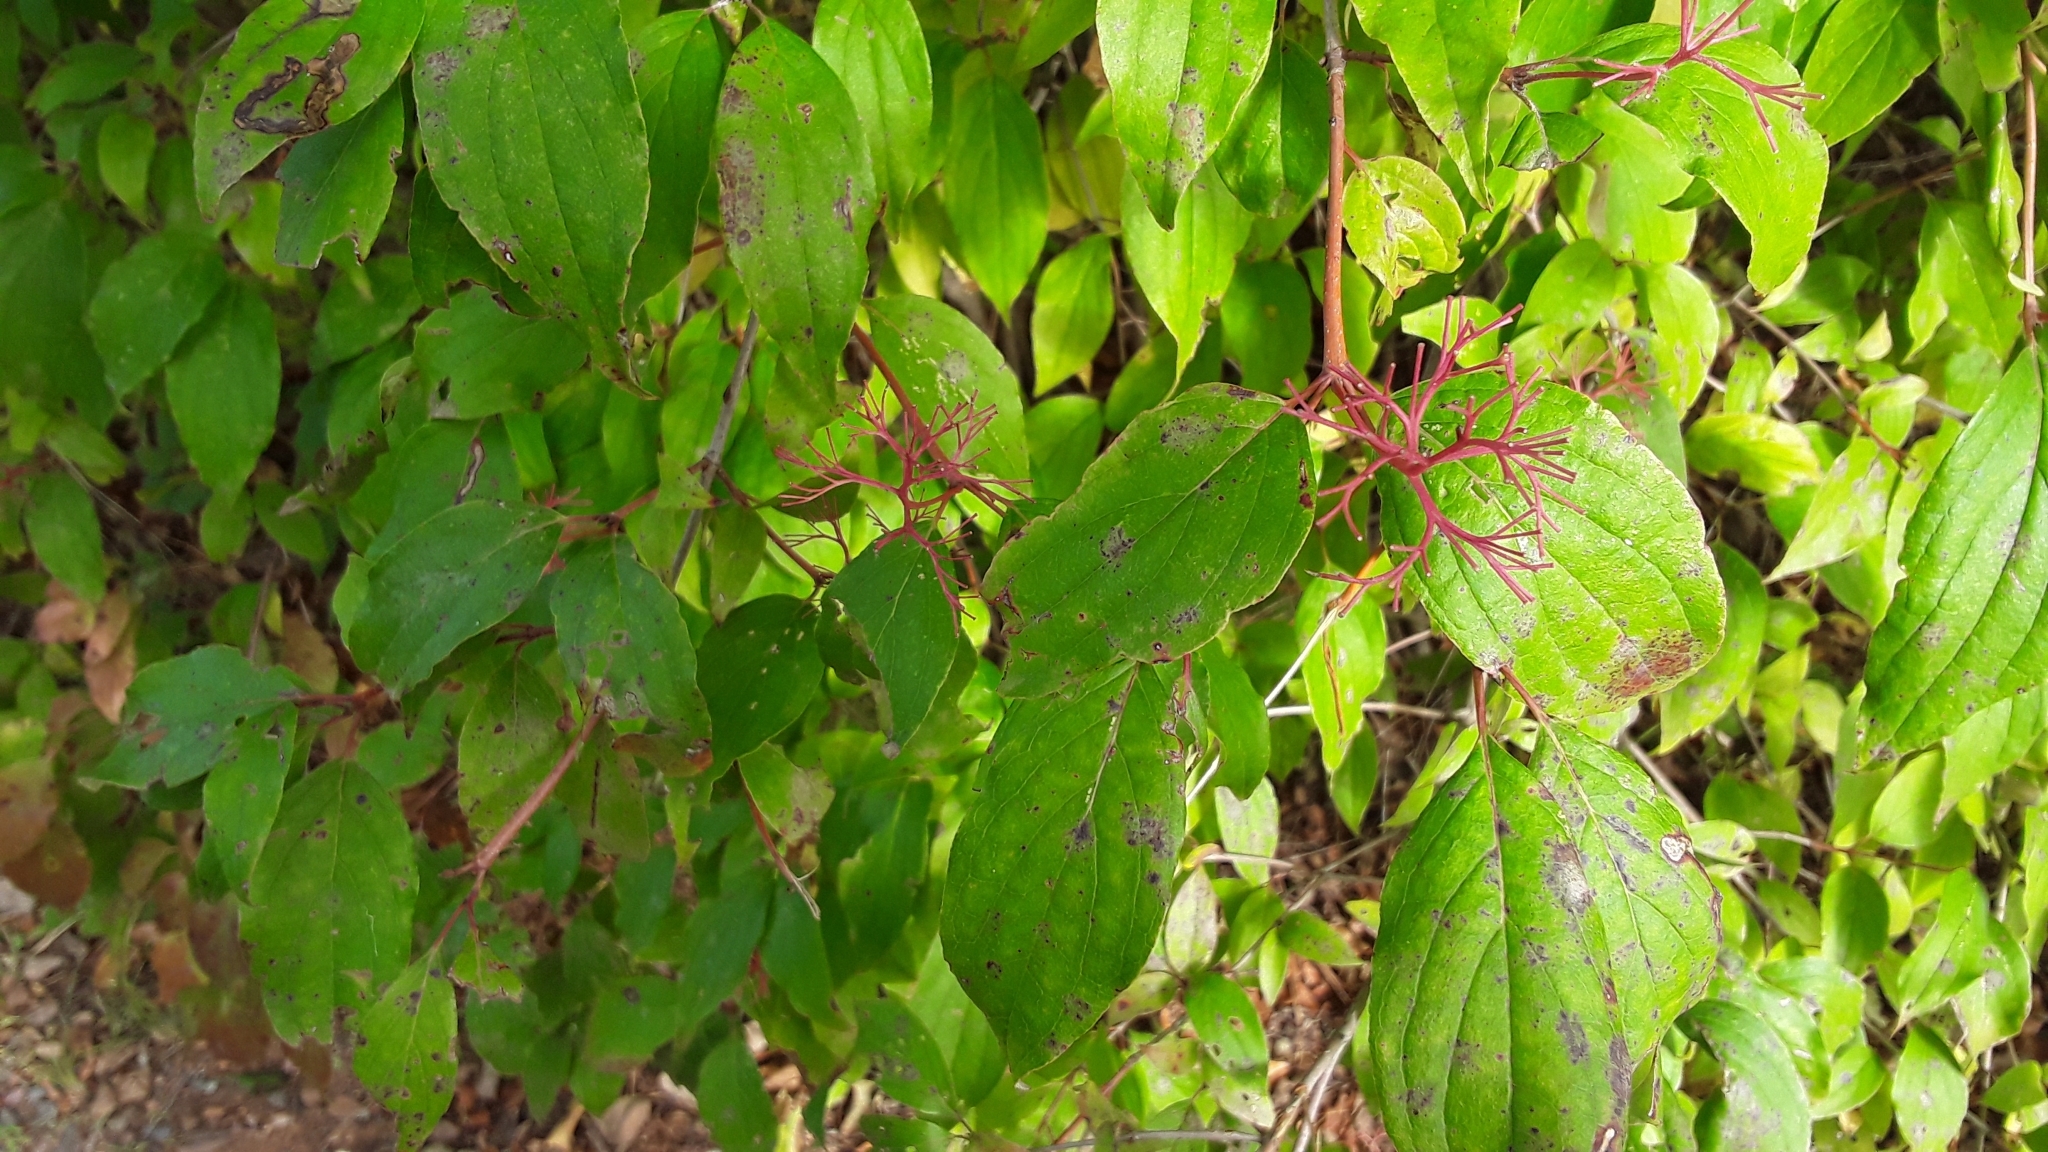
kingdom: Plantae
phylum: Tracheophyta
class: Magnoliopsida
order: Cornales
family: Cornaceae
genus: Cornus
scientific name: Cornus racemosa
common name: Panicled dogwood
